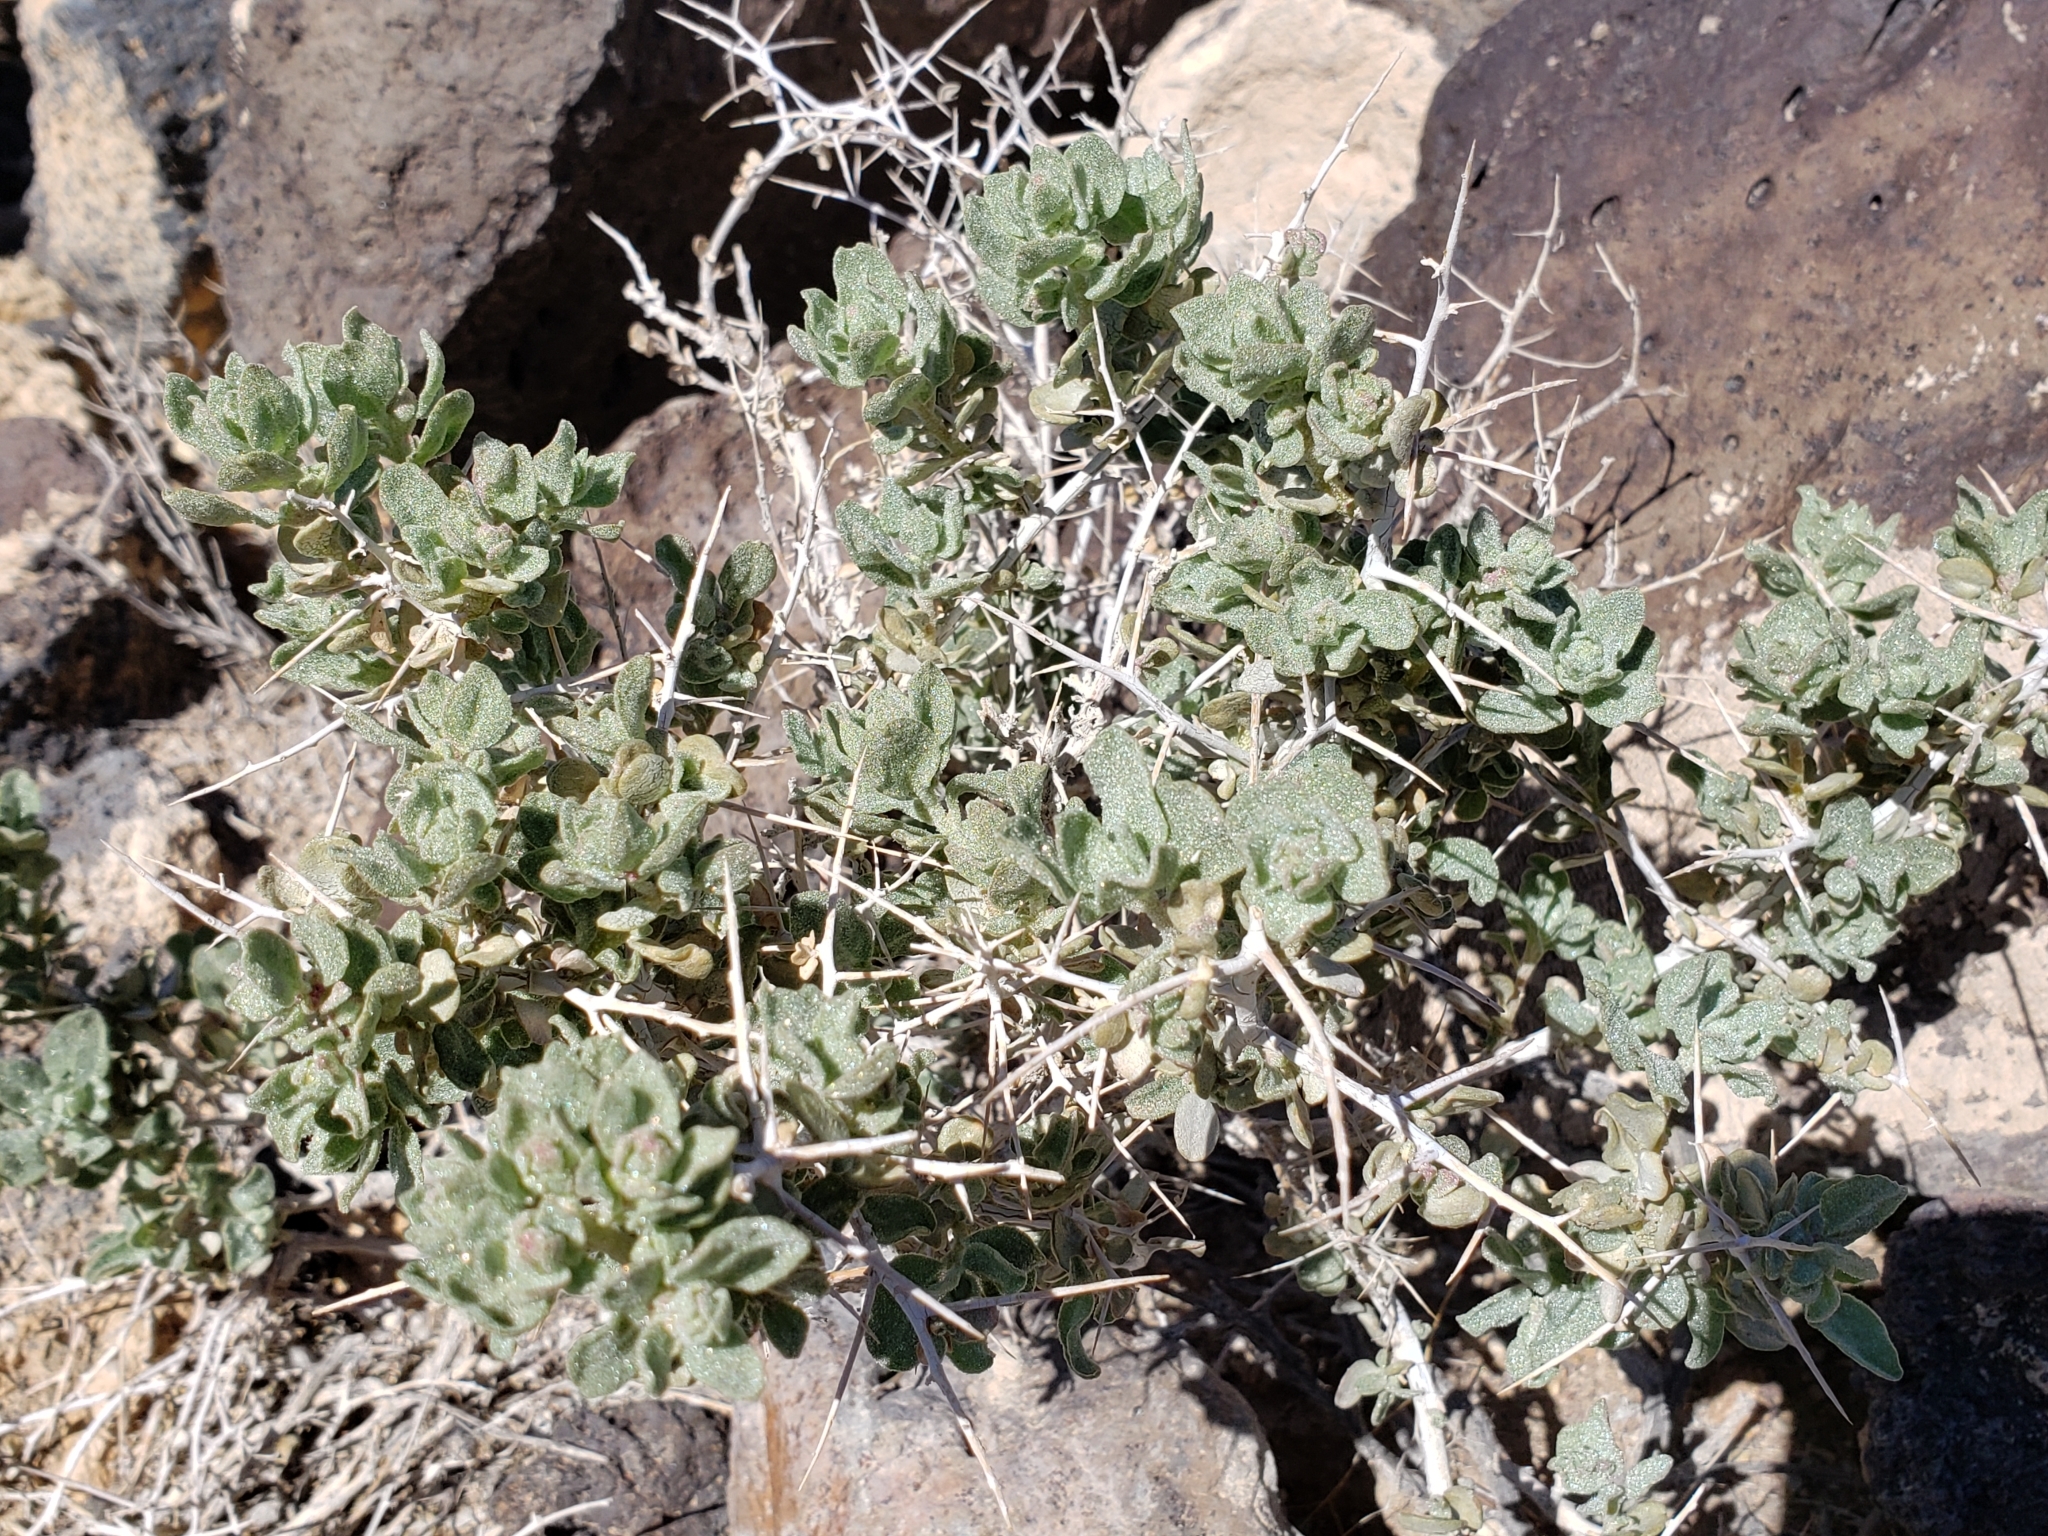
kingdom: Plantae
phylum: Tracheophyta
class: Magnoliopsida
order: Caryophyllales
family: Amaranthaceae
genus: Atriplex
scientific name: Atriplex confertifolia
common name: Shadscale
